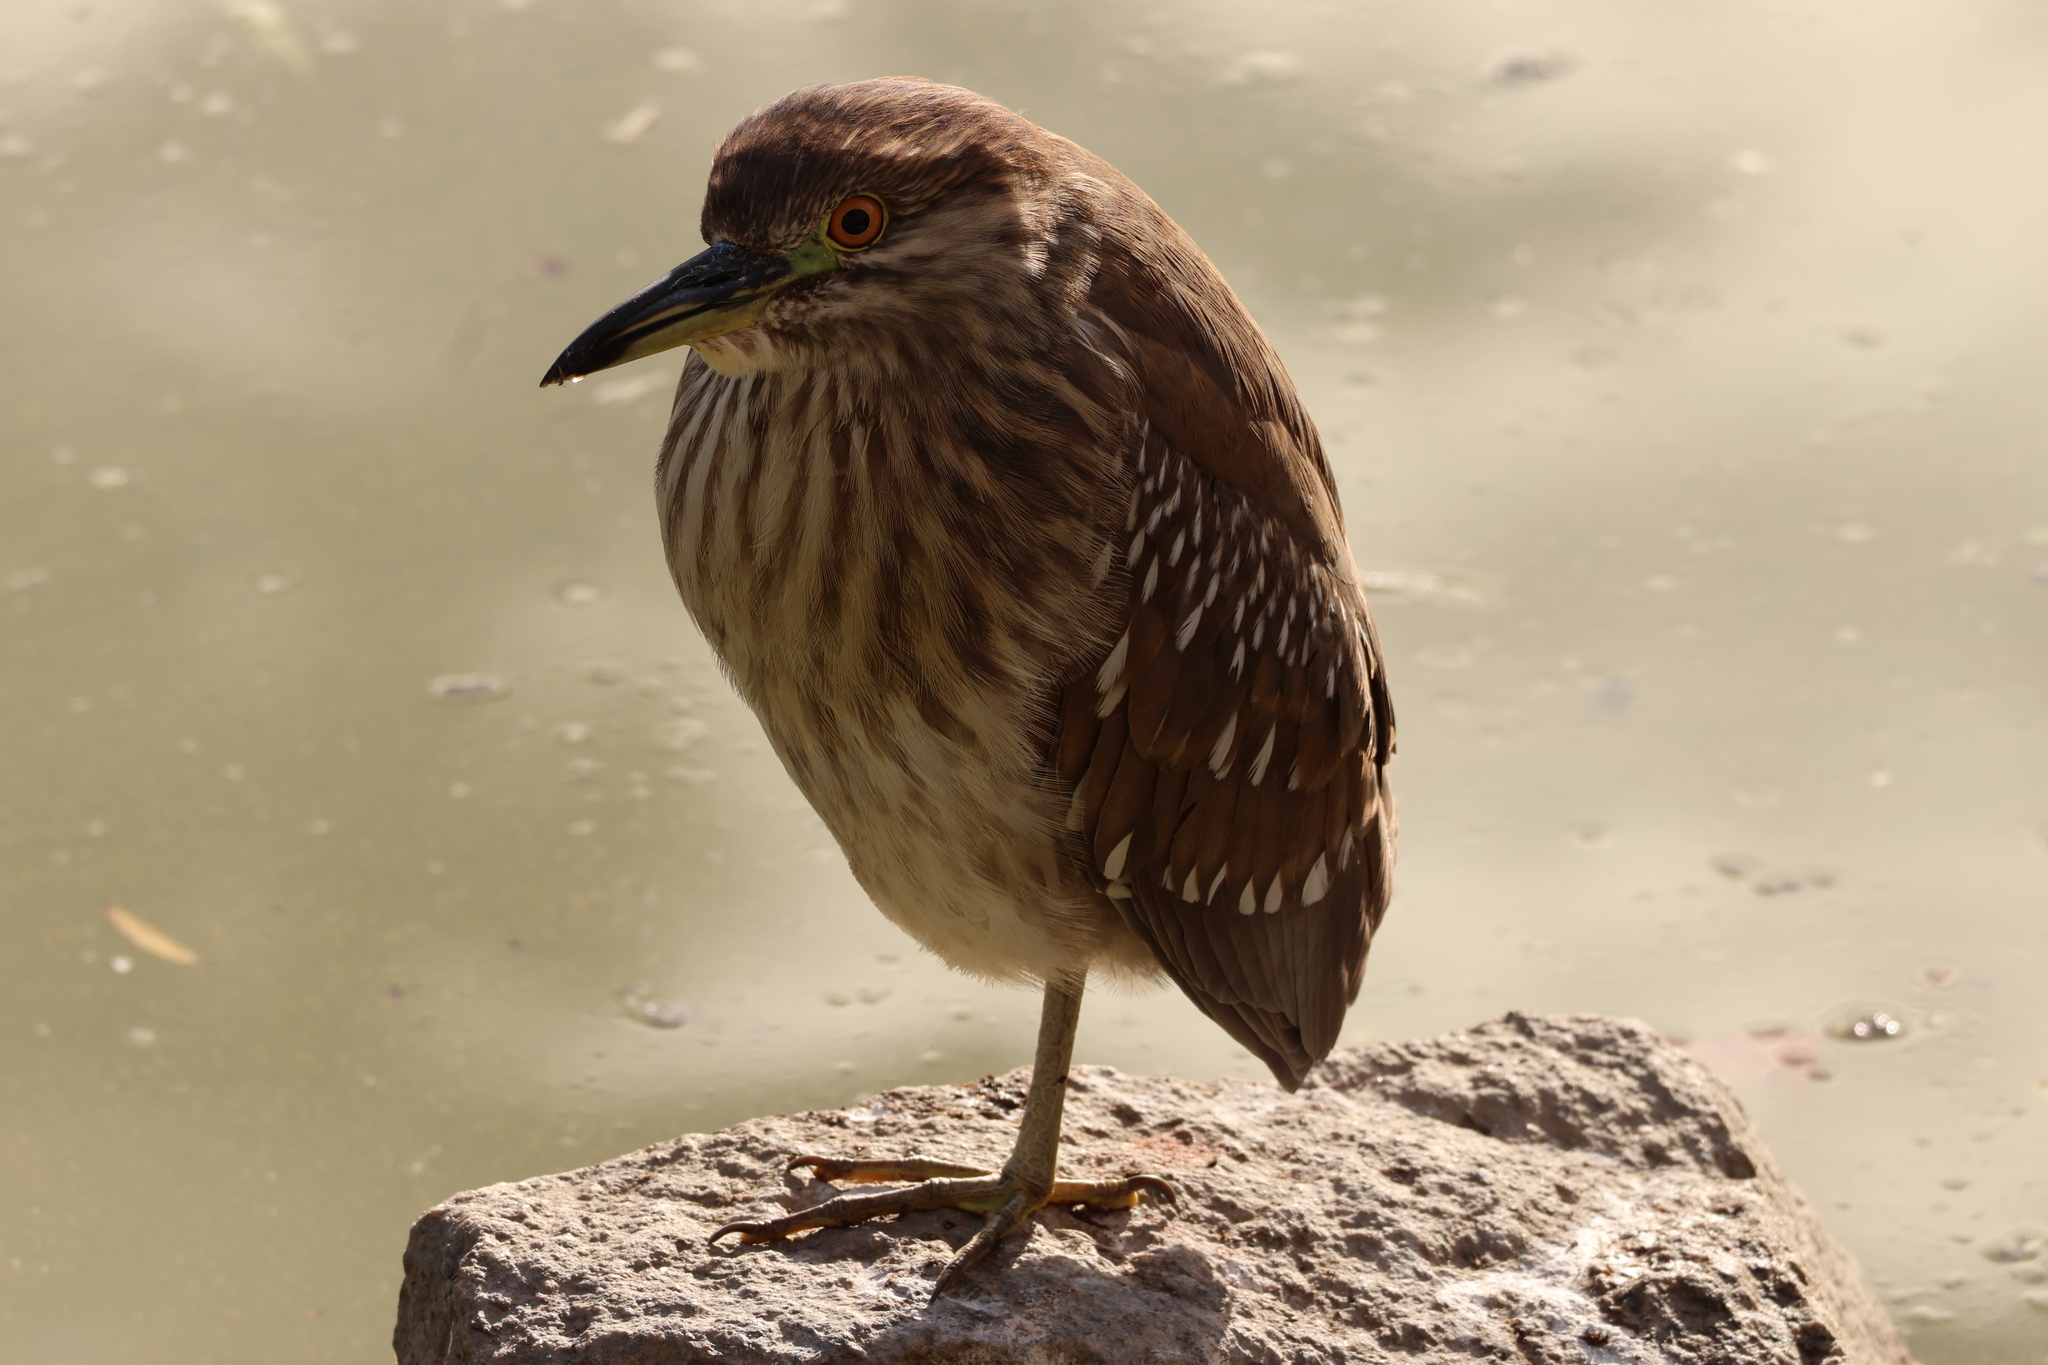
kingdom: Animalia
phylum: Chordata
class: Aves
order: Pelecaniformes
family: Ardeidae
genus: Nycticorax
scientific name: Nycticorax nycticorax
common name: Black-crowned night heron
